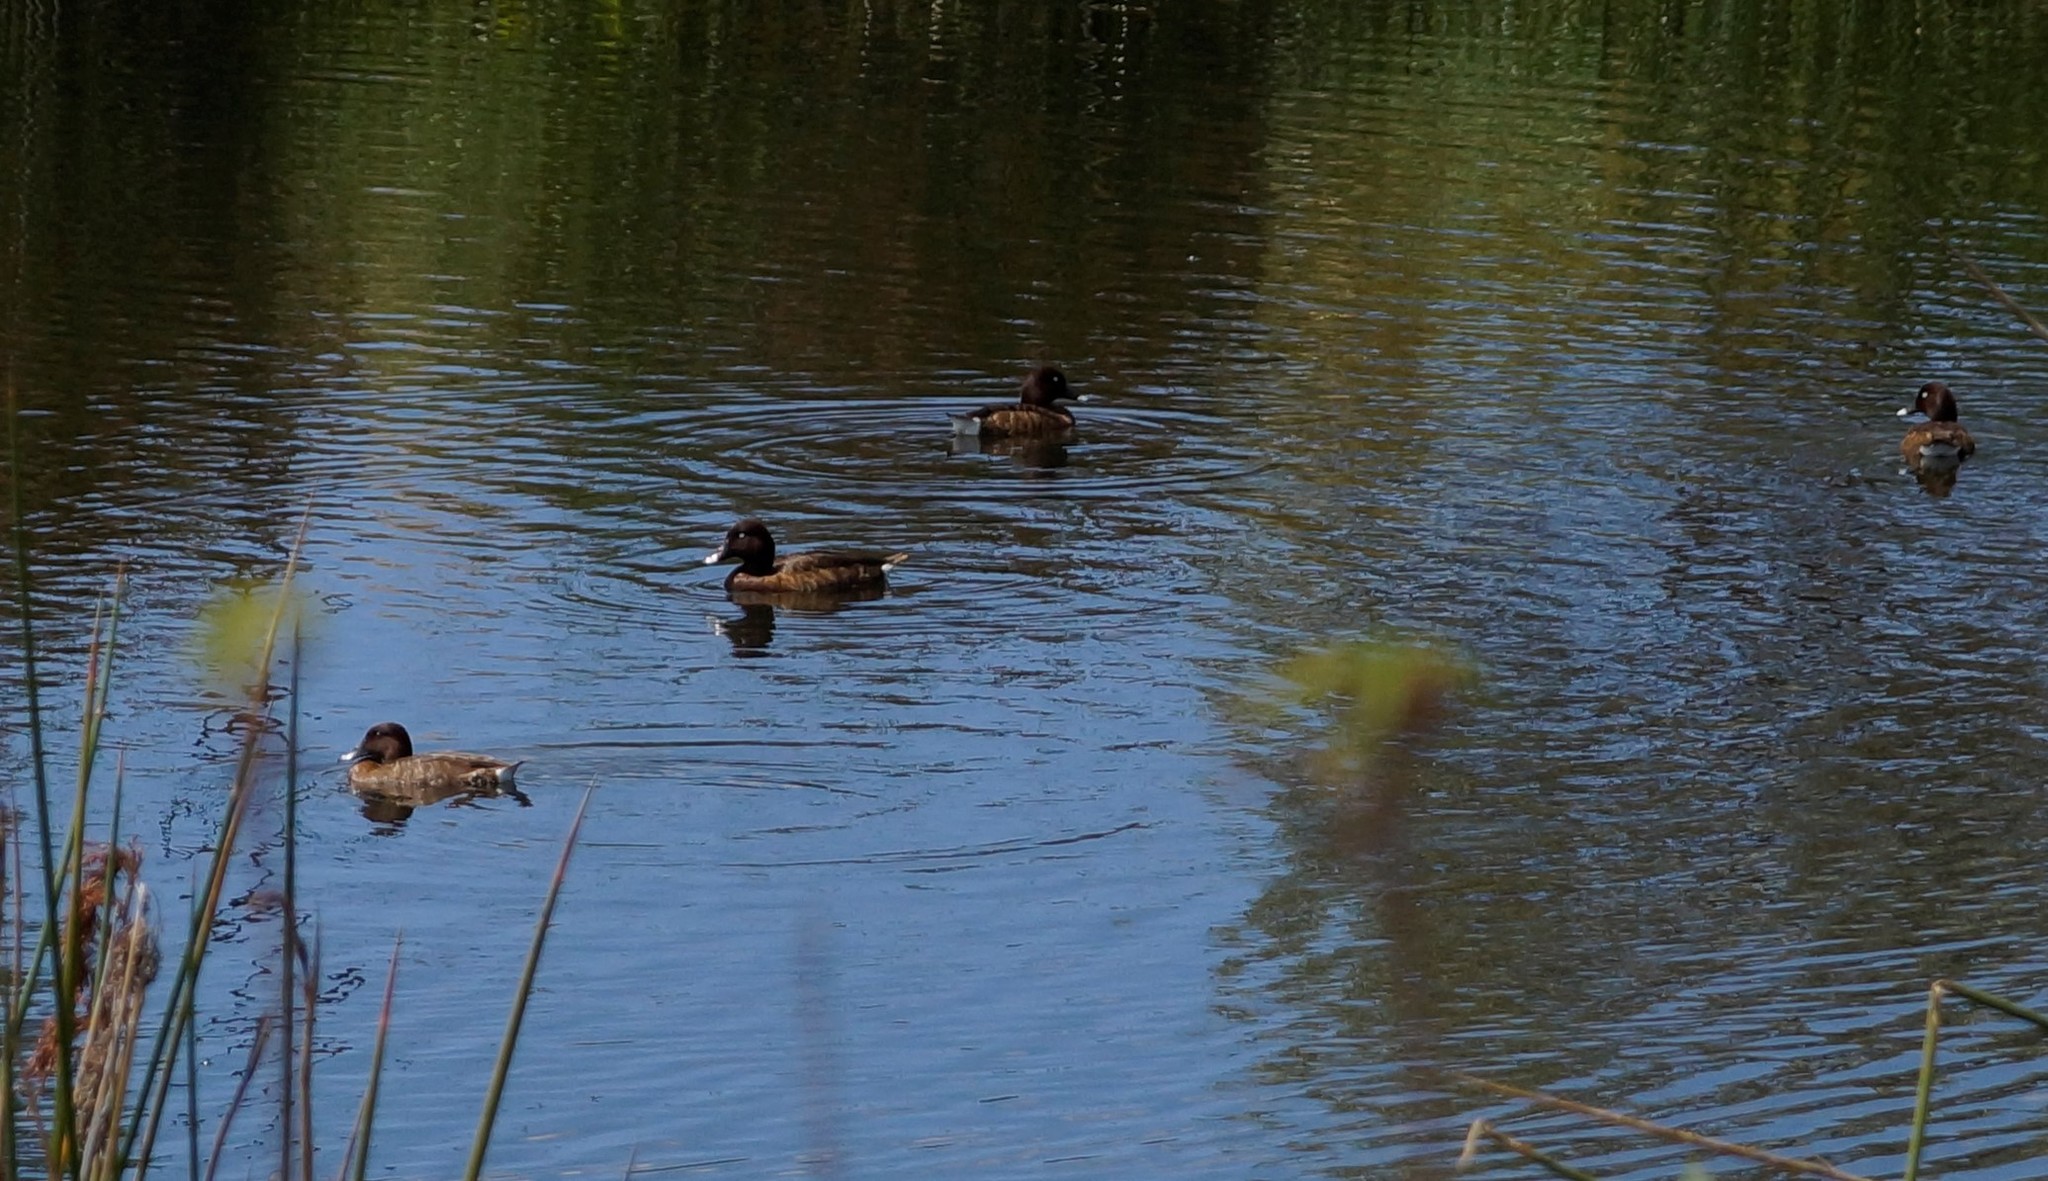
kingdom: Animalia
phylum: Chordata
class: Aves
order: Anseriformes
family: Anatidae
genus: Aythya
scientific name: Aythya australis
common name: Hardhead
